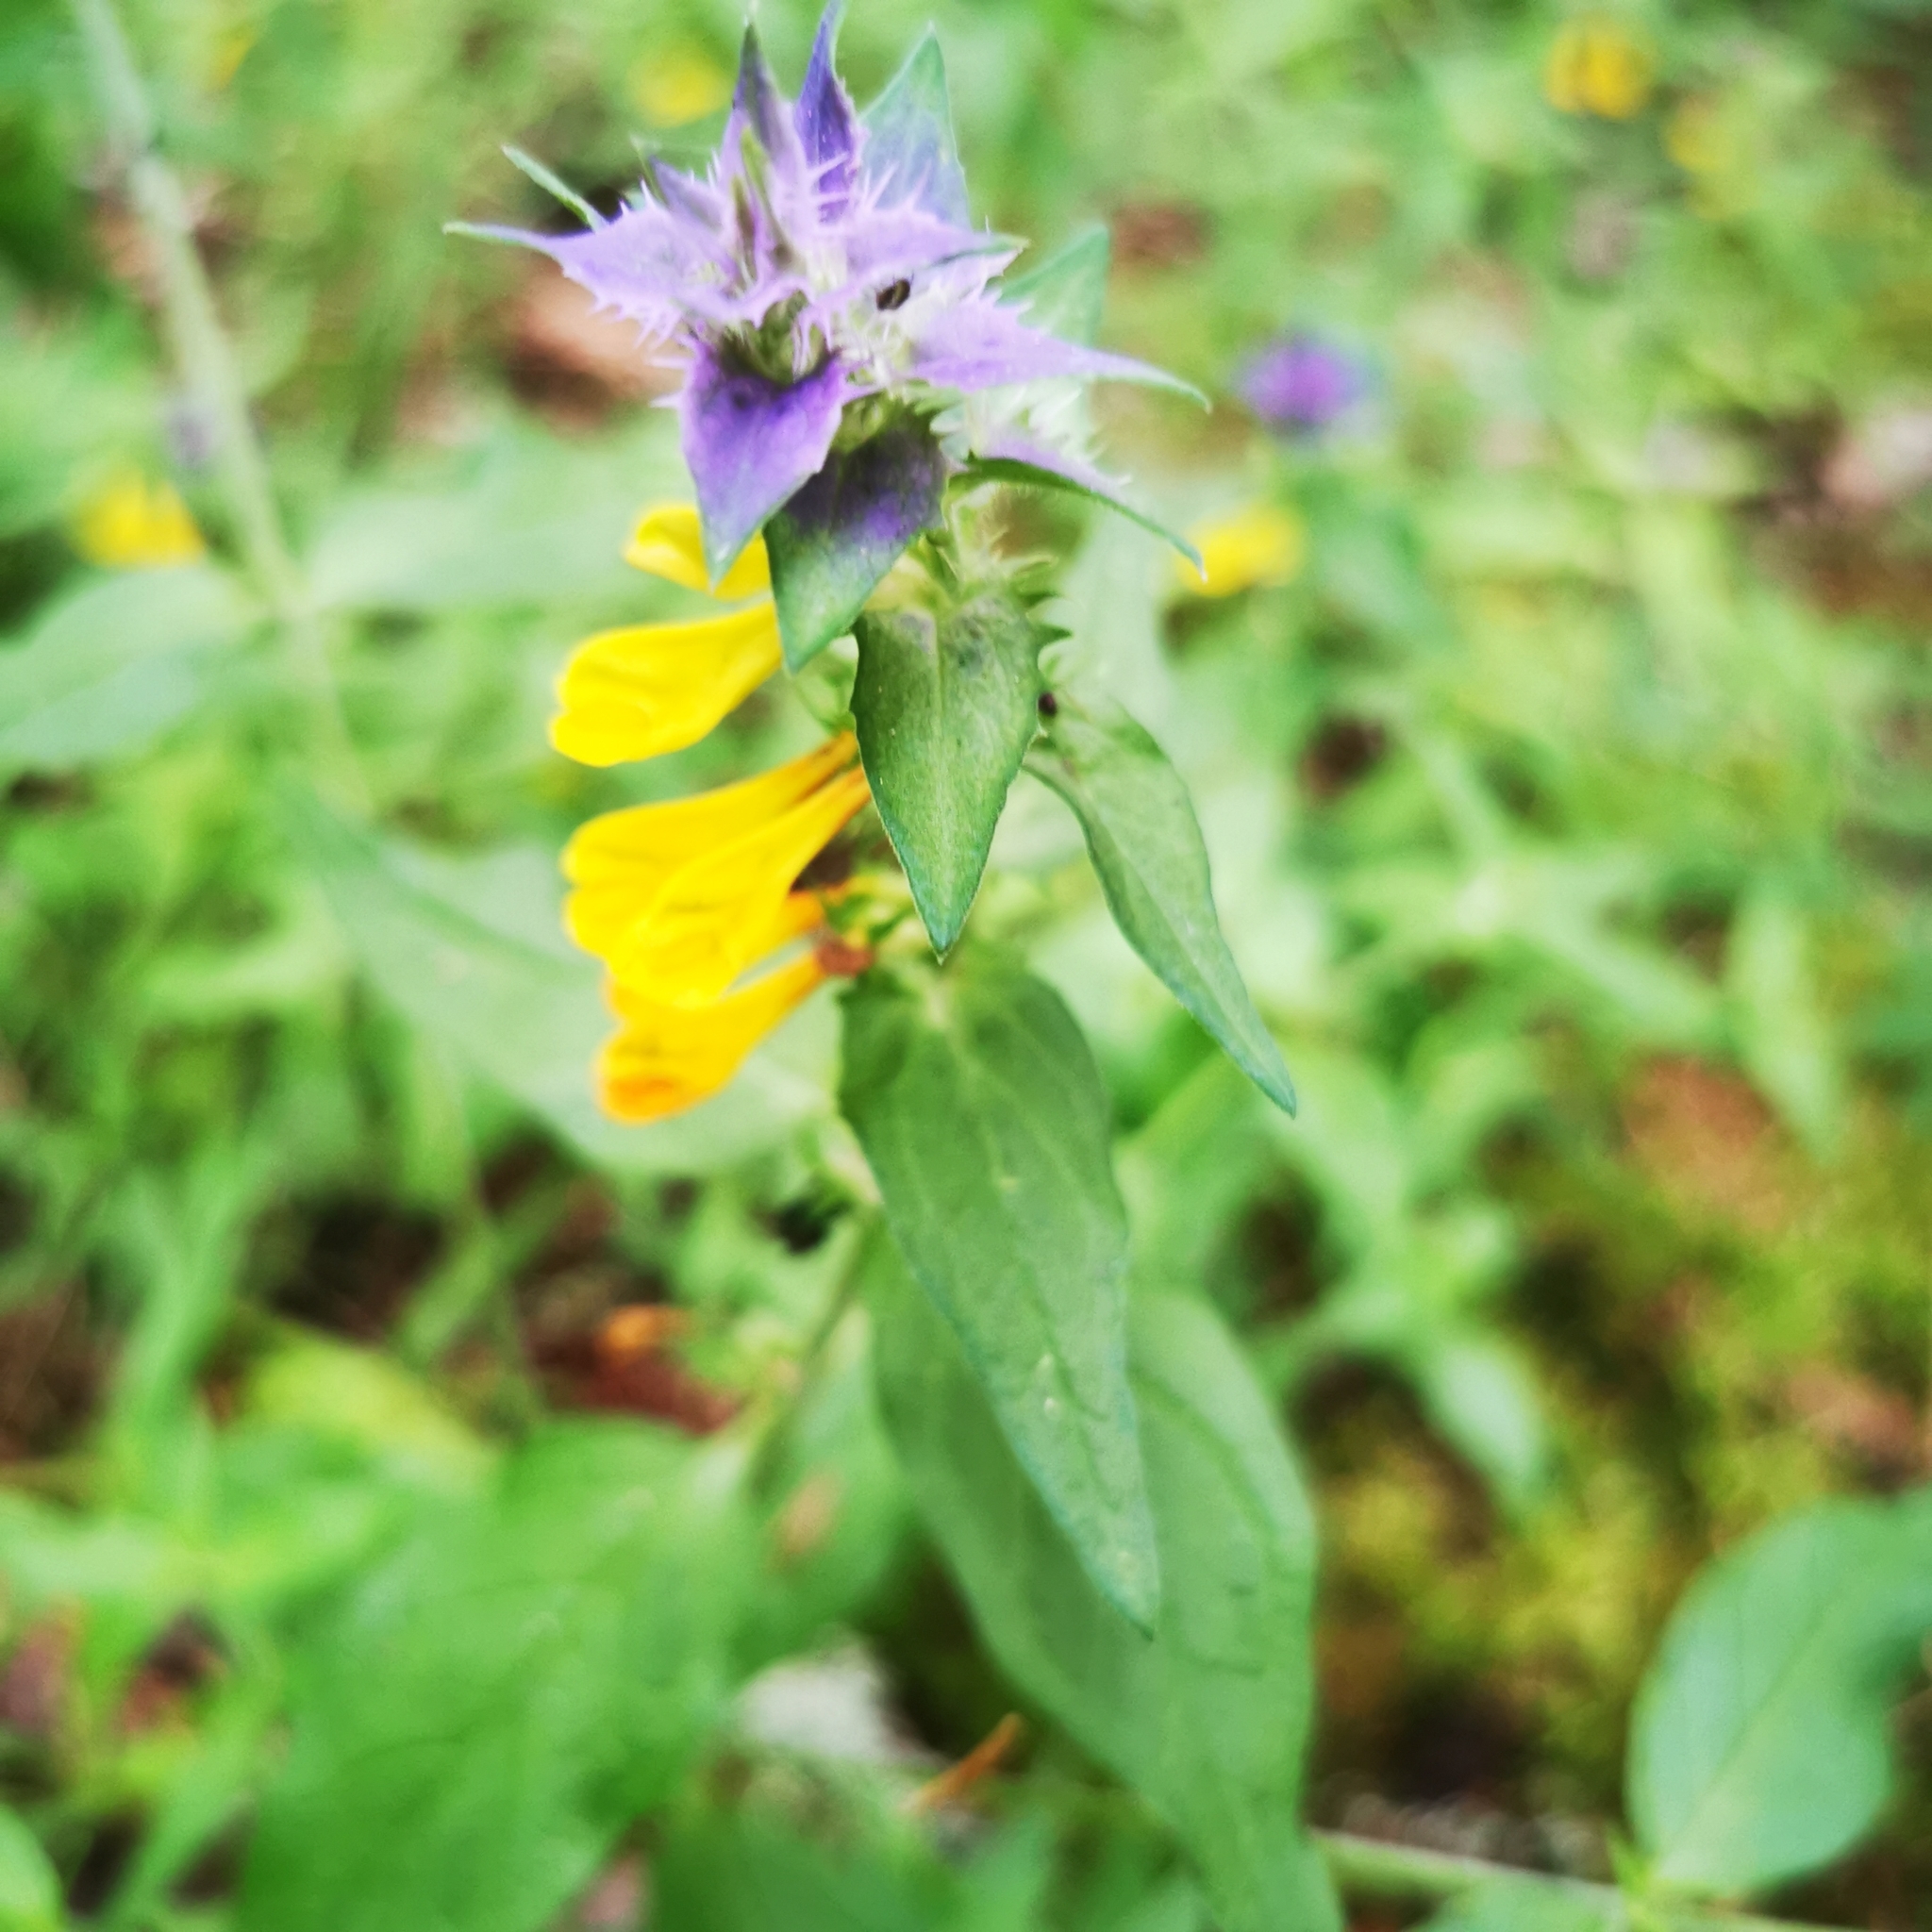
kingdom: Plantae
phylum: Tracheophyta
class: Magnoliopsida
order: Lamiales
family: Orobanchaceae
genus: Melampyrum
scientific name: Melampyrum nemorosum
